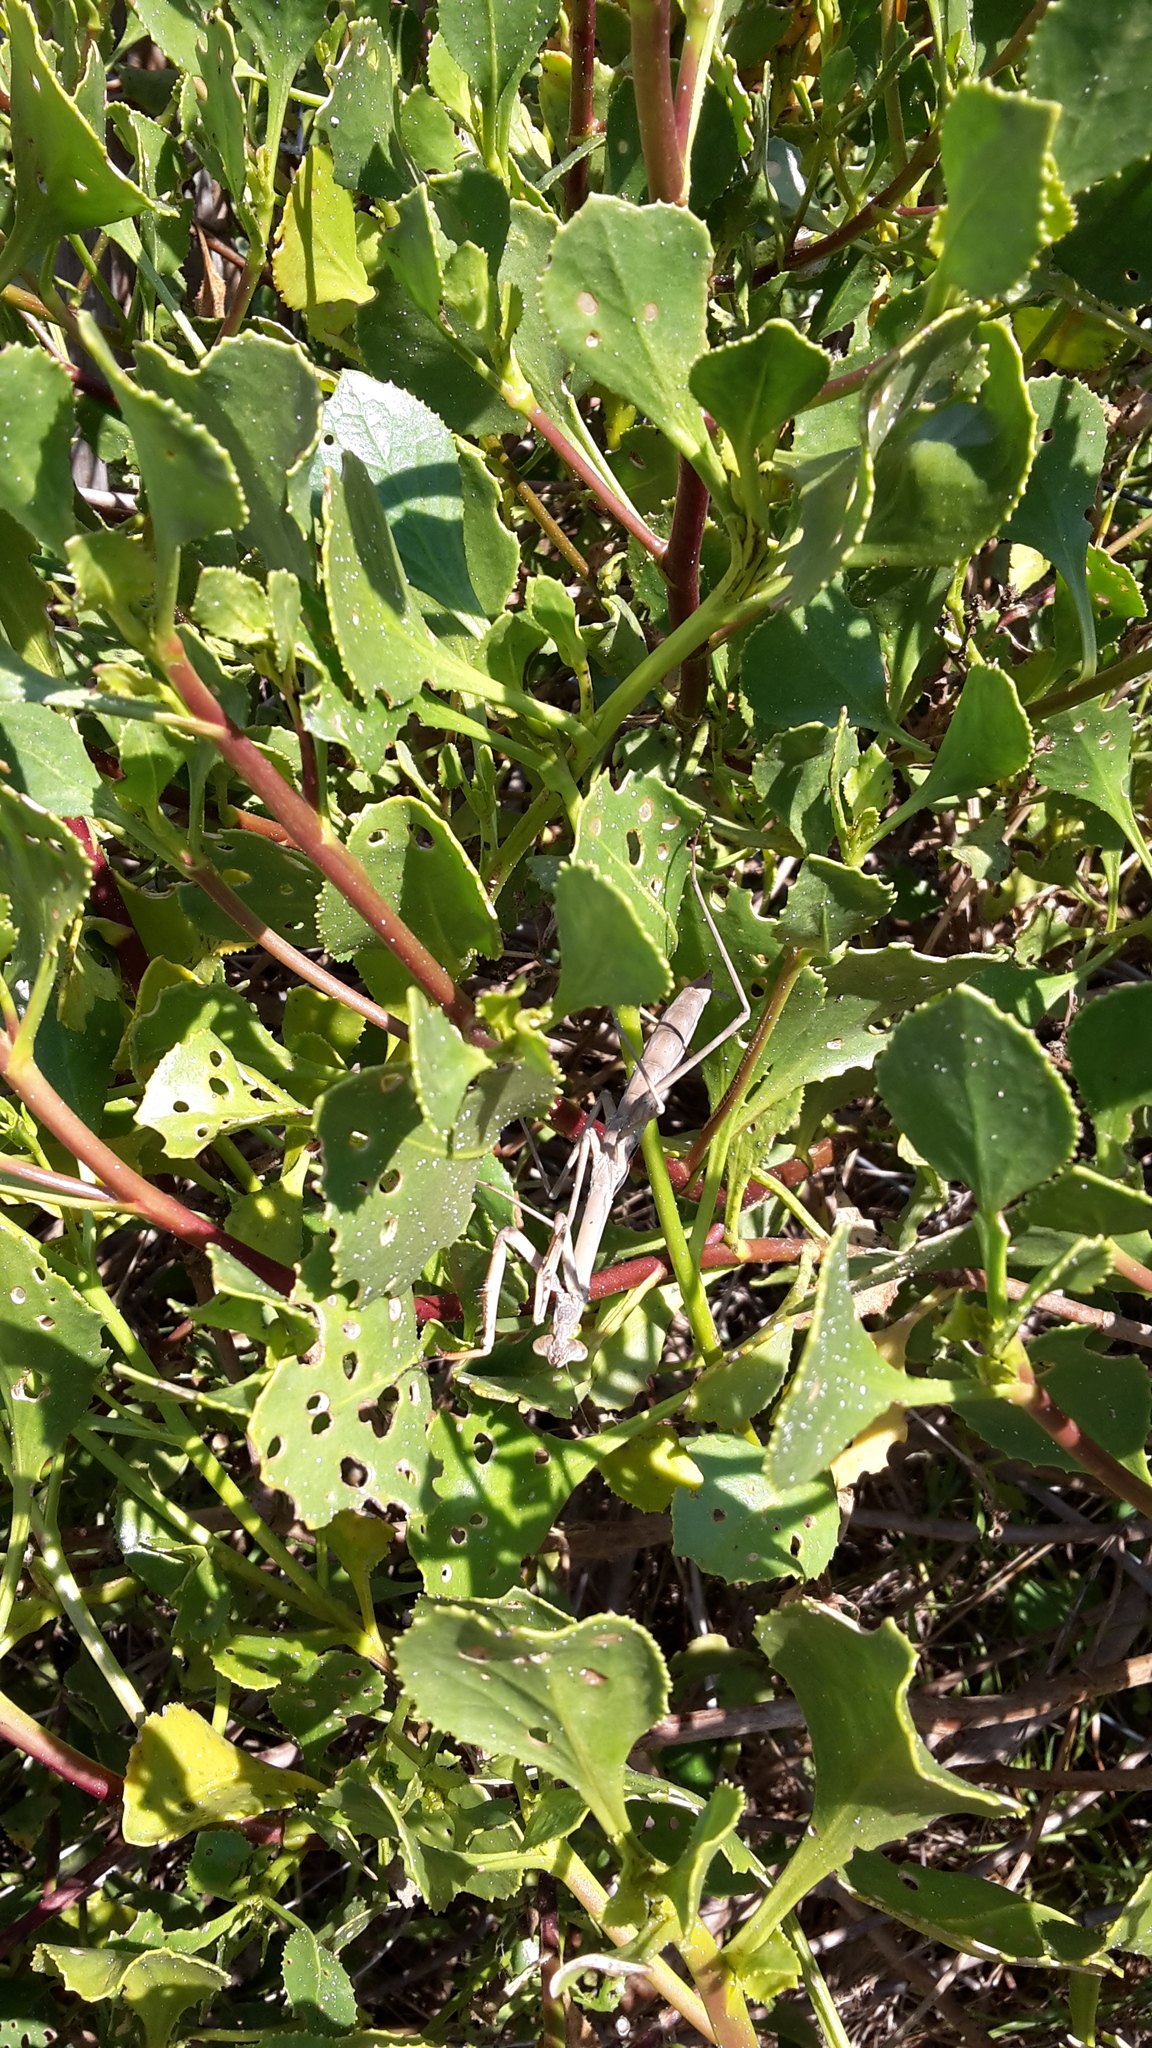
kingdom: Animalia
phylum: Arthropoda
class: Insecta
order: Mantodea
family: Mantidae
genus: Archimantis
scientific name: Archimantis sobrina
